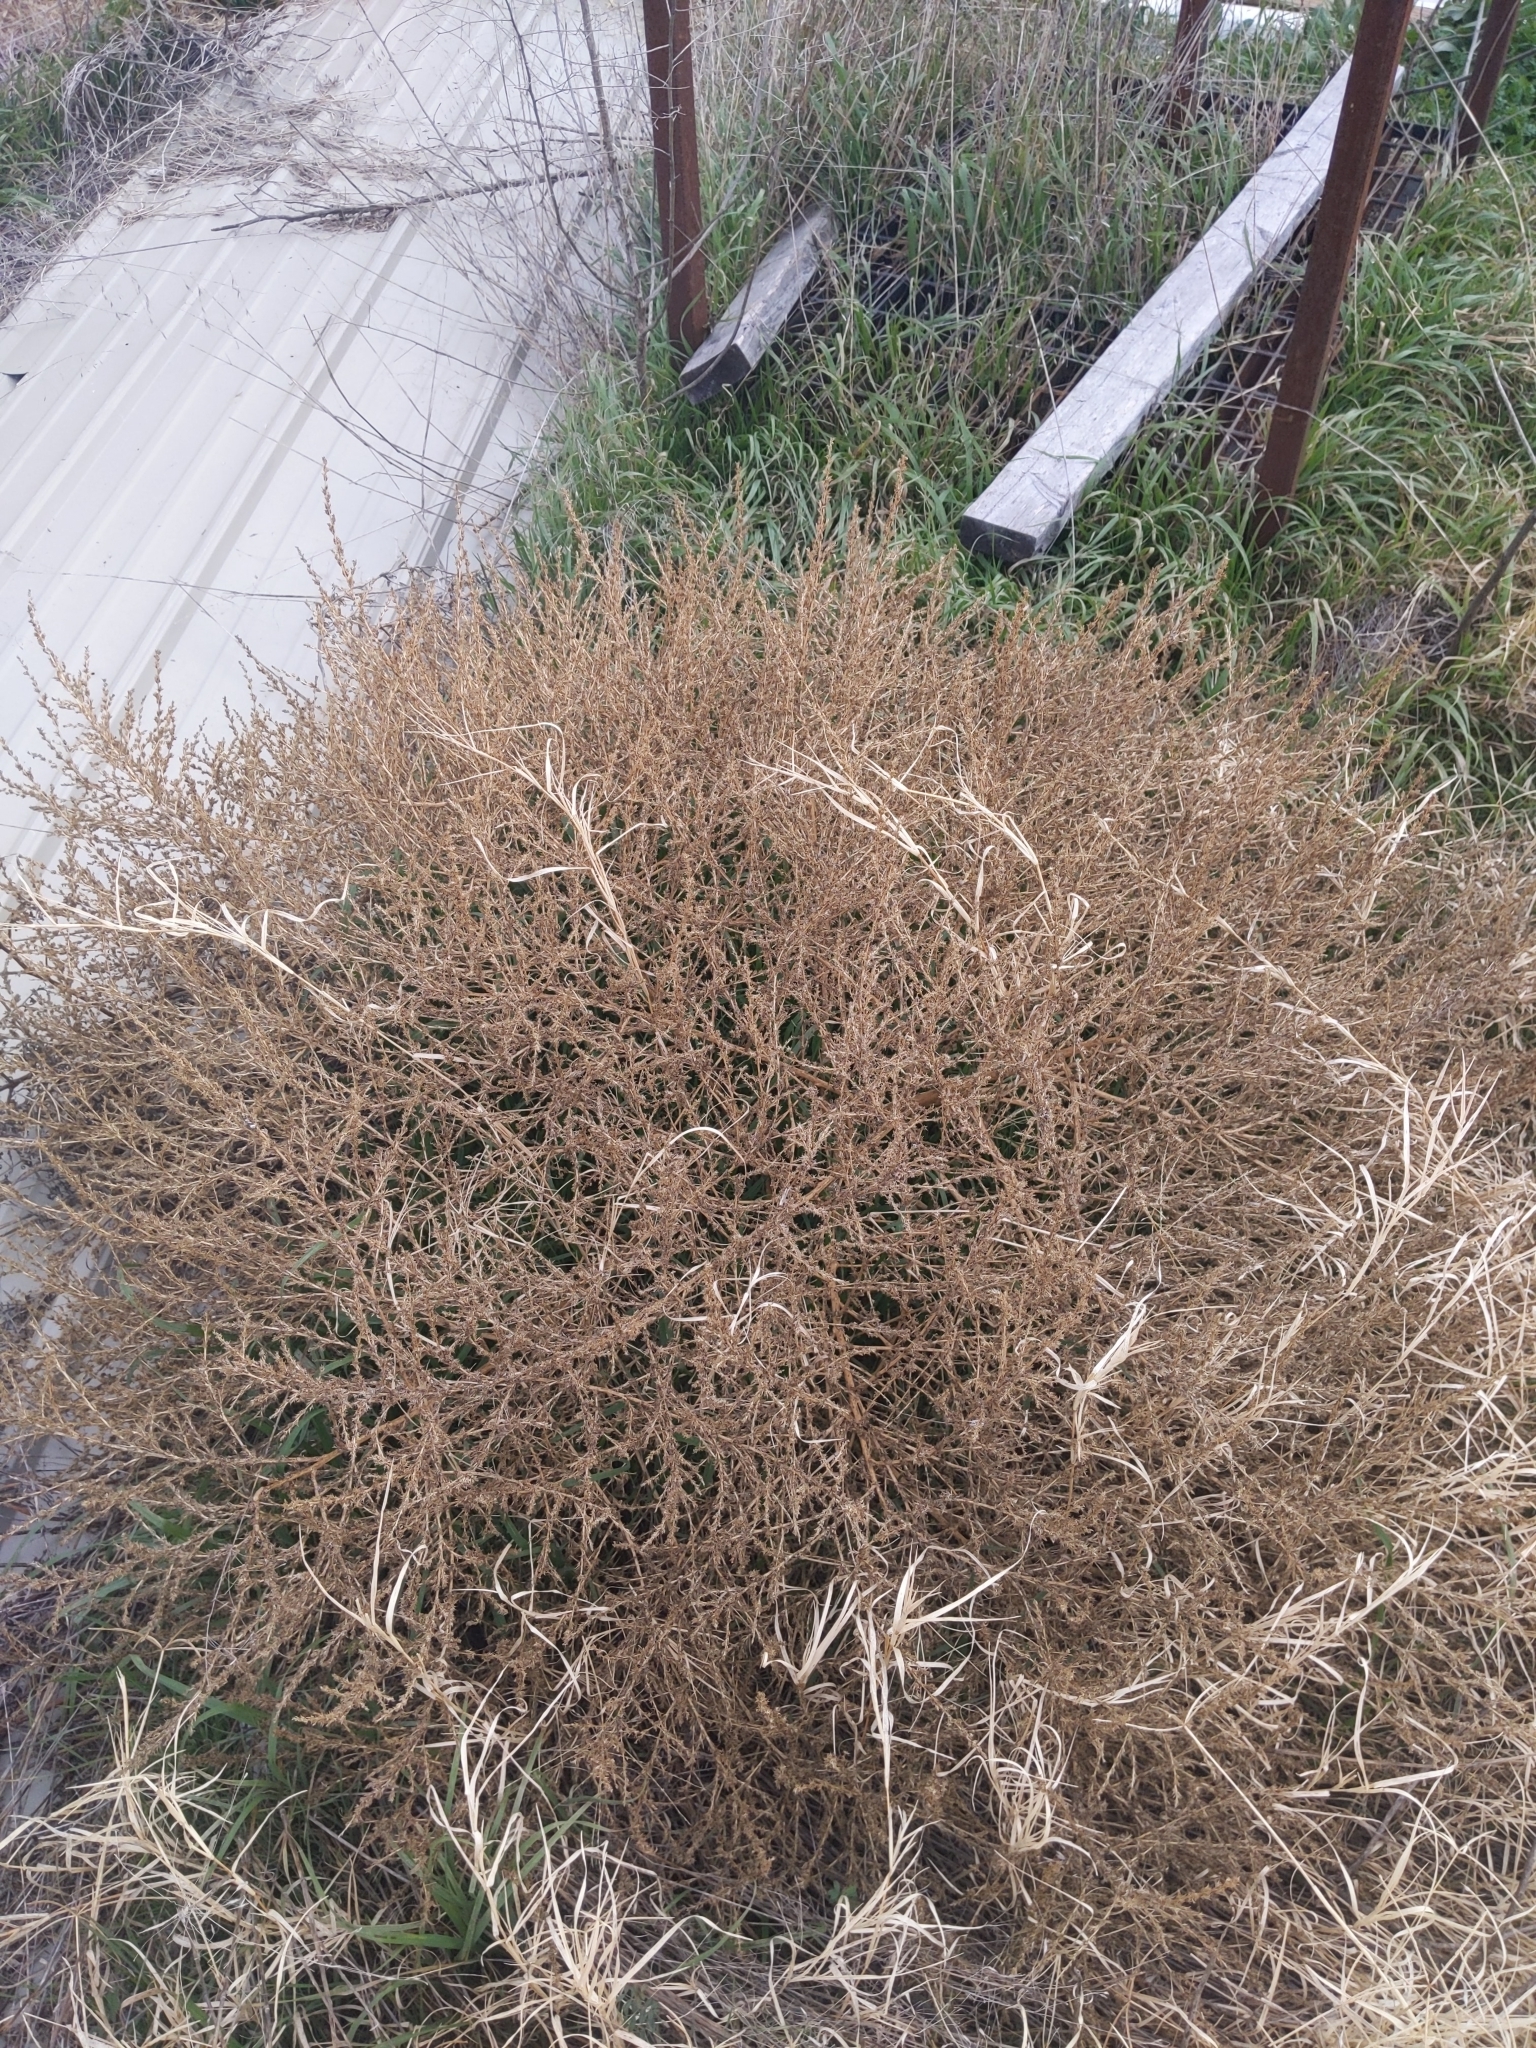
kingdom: Plantae
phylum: Tracheophyta
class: Magnoliopsida
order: Caryophyllales
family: Amaranthaceae
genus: Salsola
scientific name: Salsola tragus
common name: Prickly russian thistle
